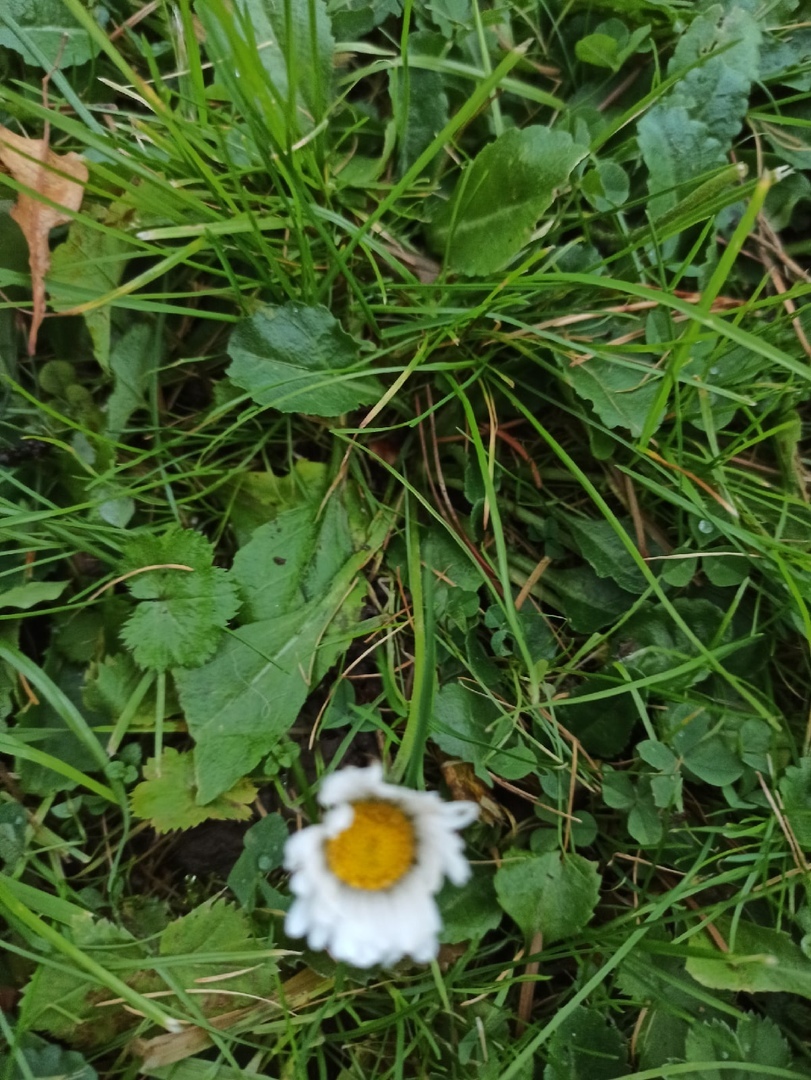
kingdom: Plantae
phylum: Tracheophyta
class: Magnoliopsida
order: Asterales
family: Asteraceae
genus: Bellis
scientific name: Bellis perennis
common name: Lawndaisy
